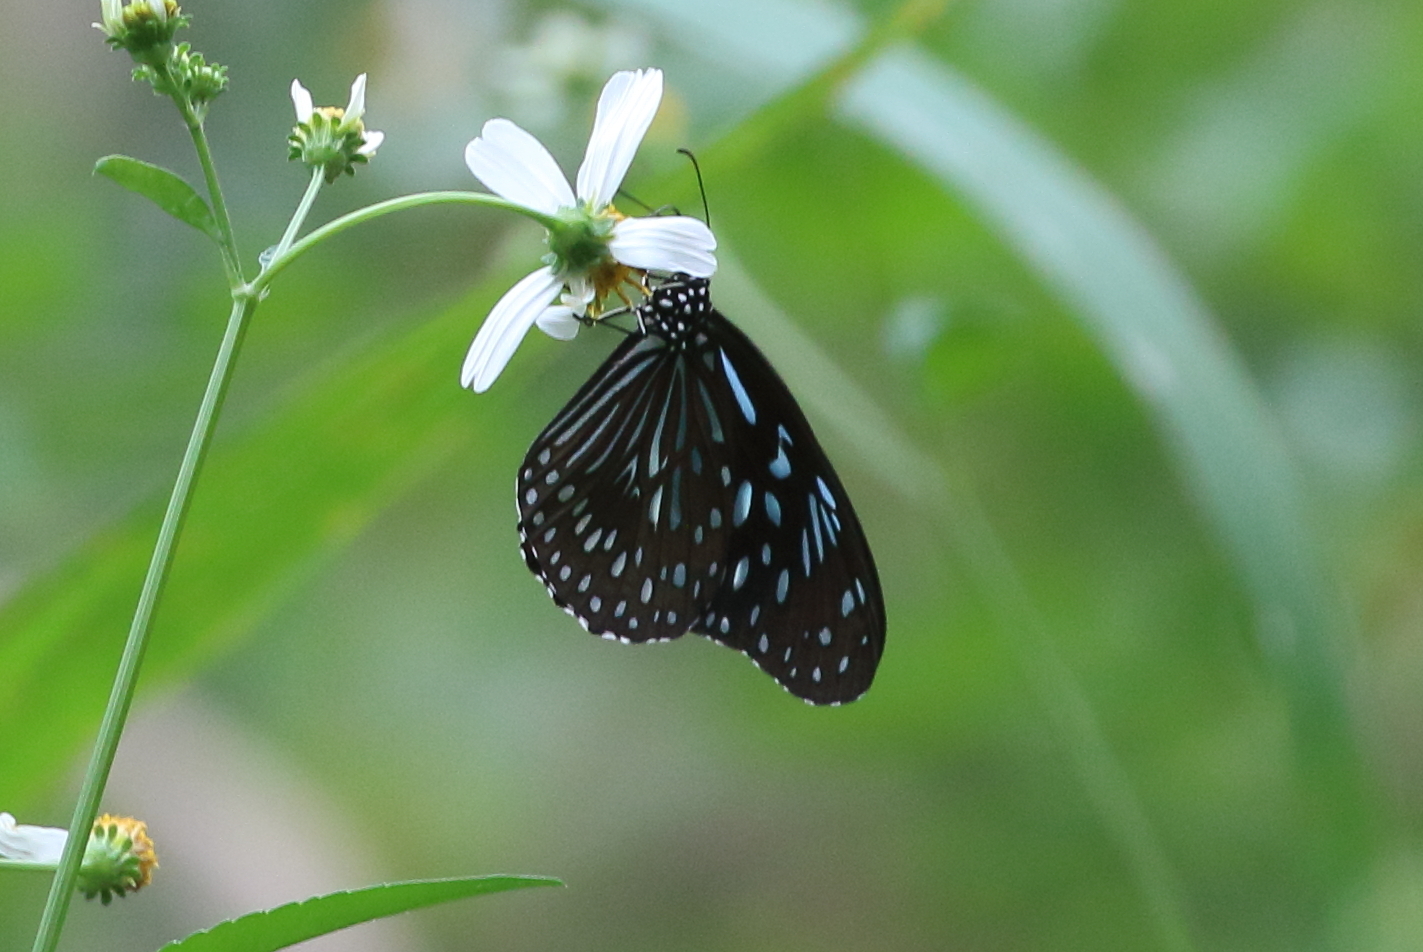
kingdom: Animalia
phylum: Arthropoda
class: Insecta
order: Lepidoptera
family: Nymphalidae
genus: Tirumala
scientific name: Tirumala septentrionis
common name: Dark blue tiger butterfly
